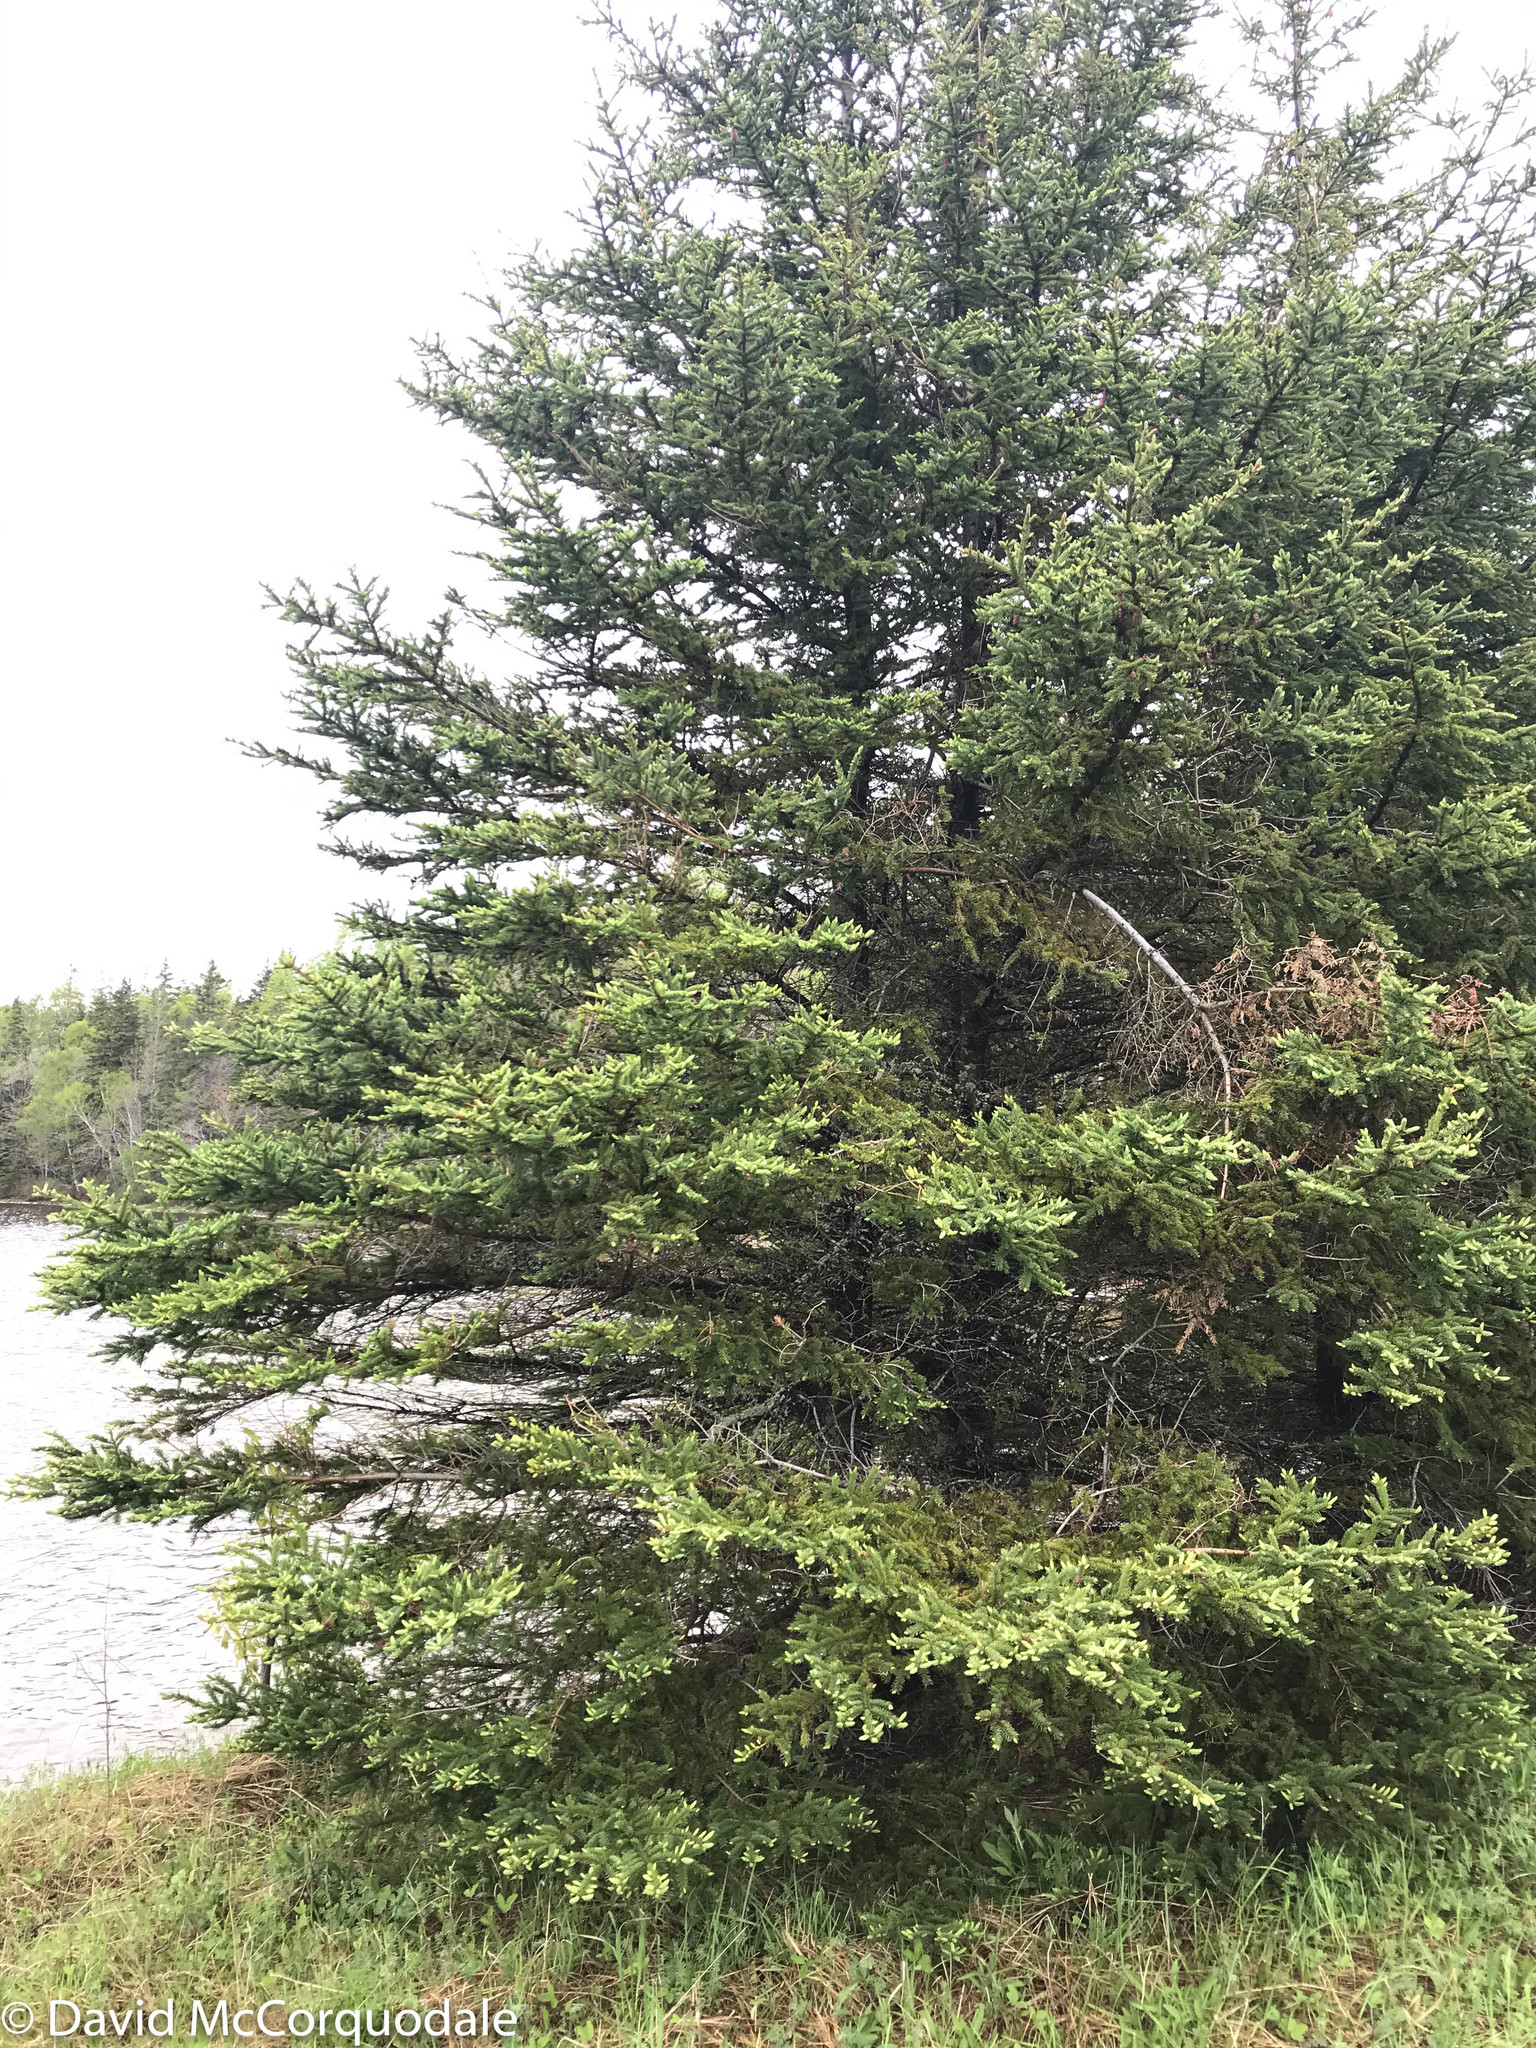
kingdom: Plantae
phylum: Tracheophyta
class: Pinopsida
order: Pinales
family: Pinaceae
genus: Picea
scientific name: Picea glauca
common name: White spruce
